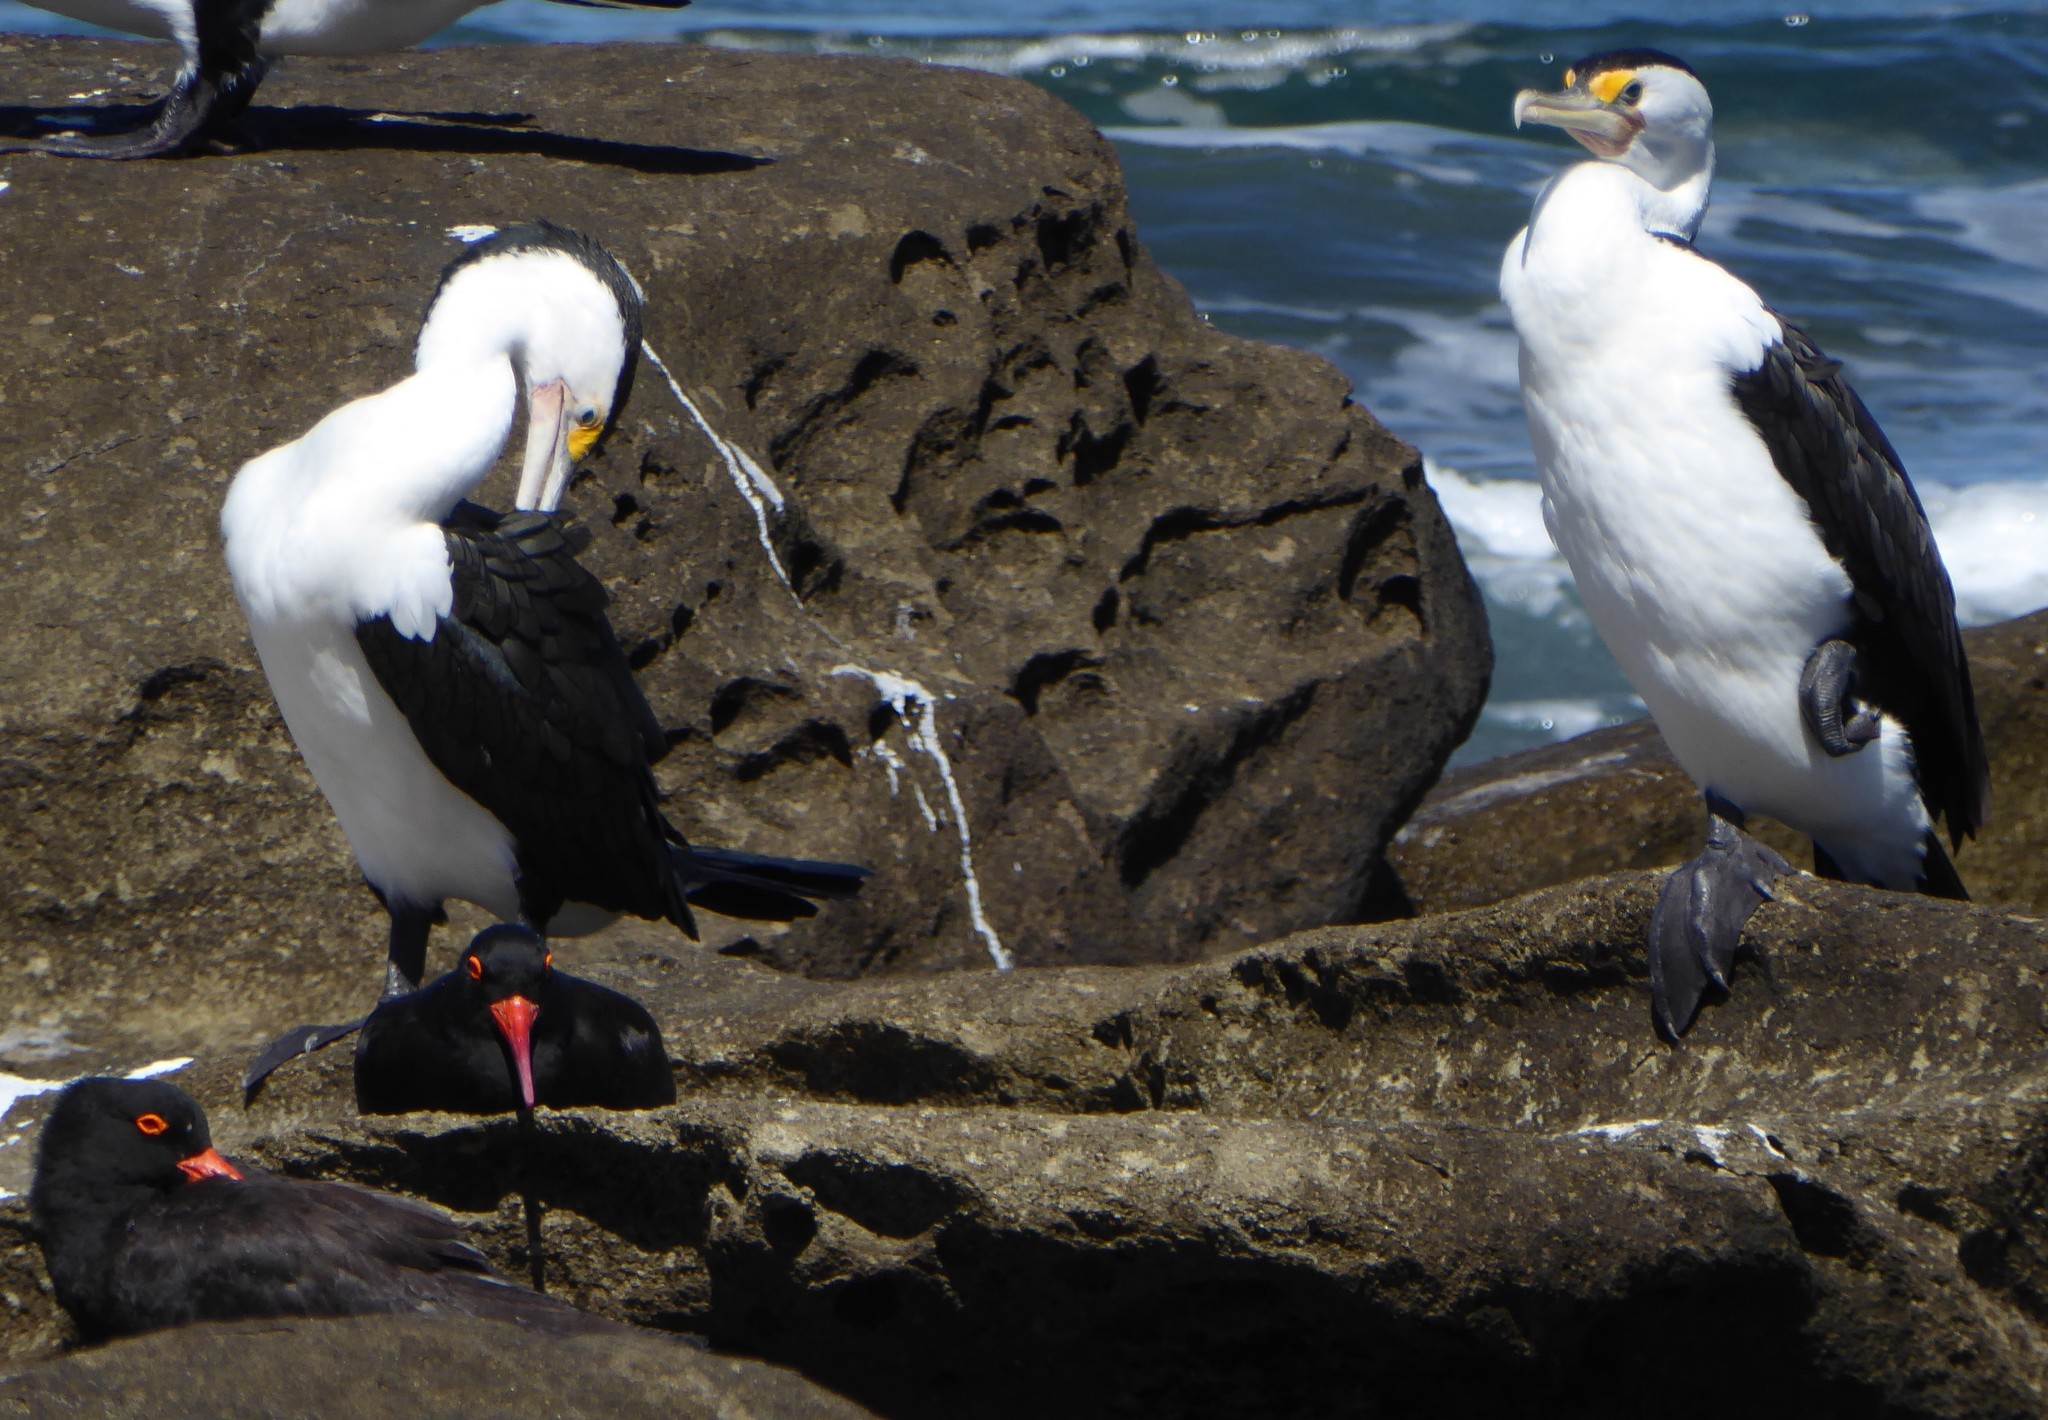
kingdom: Animalia
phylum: Chordata
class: Aves
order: Charadriiformes
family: Haematopodidae
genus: Haematopus
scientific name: Haematopus fuliginosus
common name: Sooty oystercatcher
